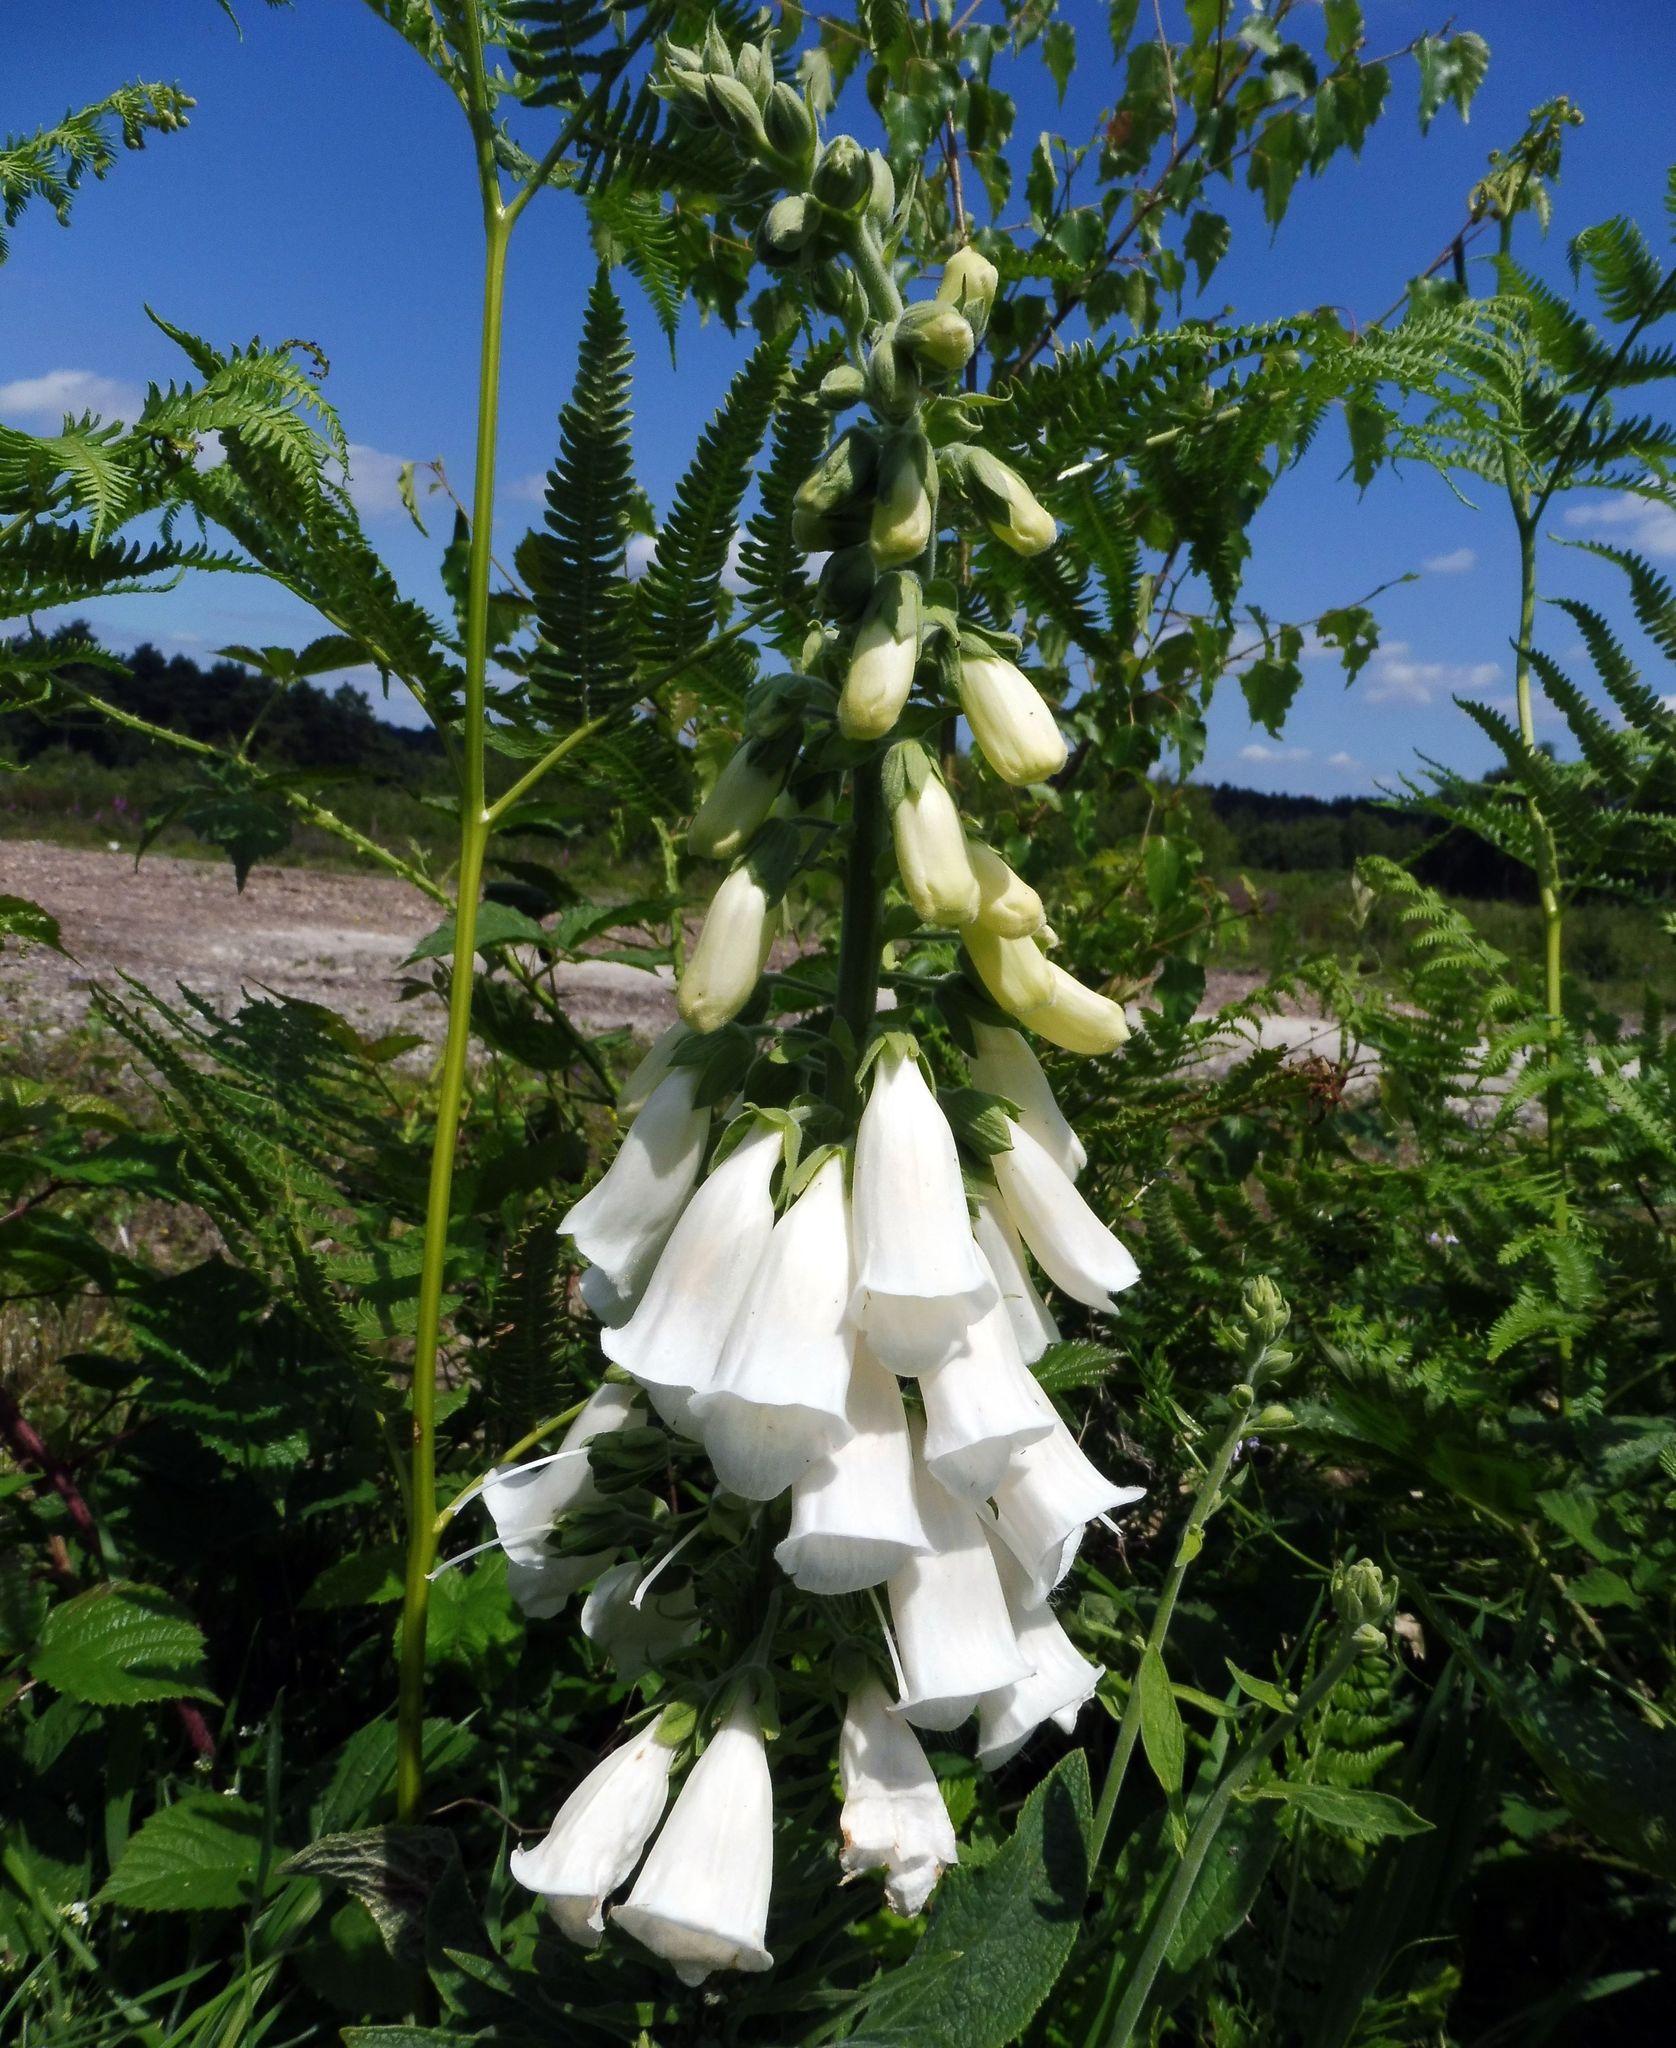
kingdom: Plantae
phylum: Tracheophyta
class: Magnoliopsida
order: Lamiales
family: Plantaginaceae
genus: Digitalis
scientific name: Digitalis purpurea
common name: Foxglove
